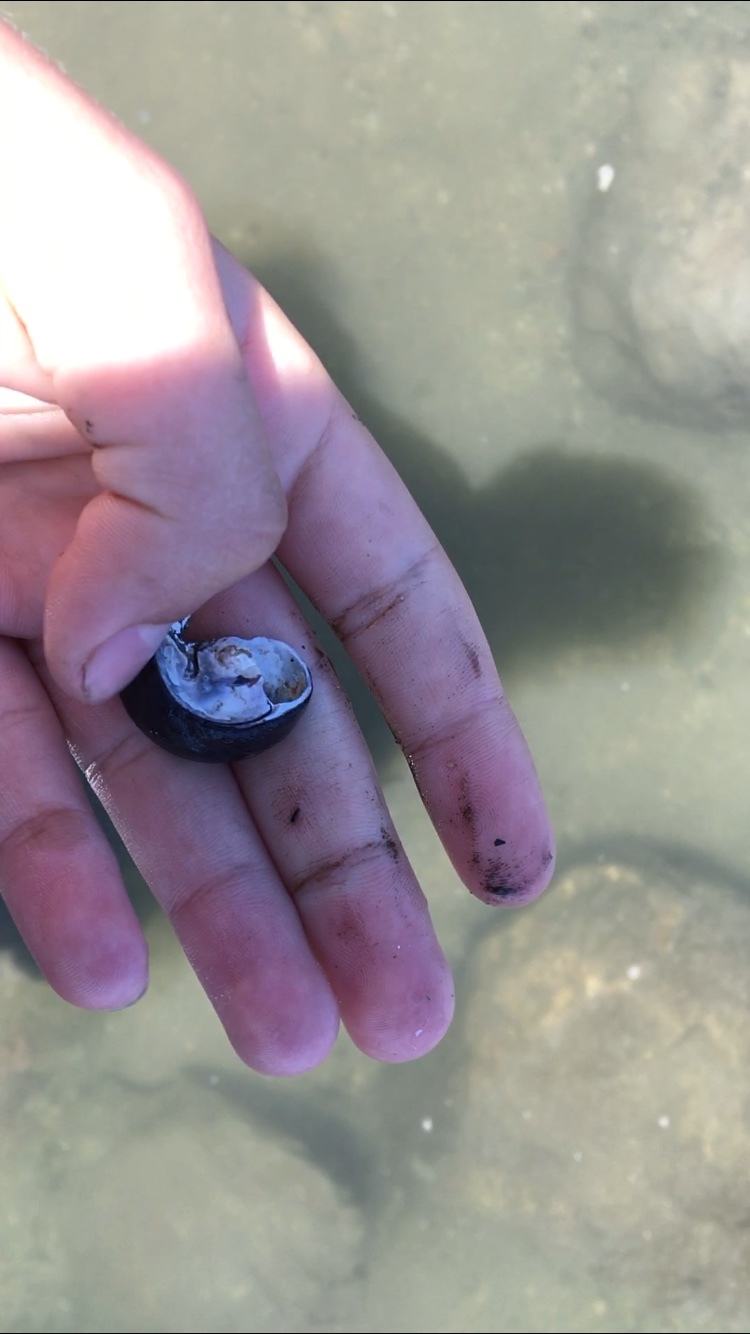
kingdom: Animalia
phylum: Mollusca
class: Gastropoda
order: Trochida
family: Tegulidae
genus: Tegula
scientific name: Tegula funebralis
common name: Black tegula
